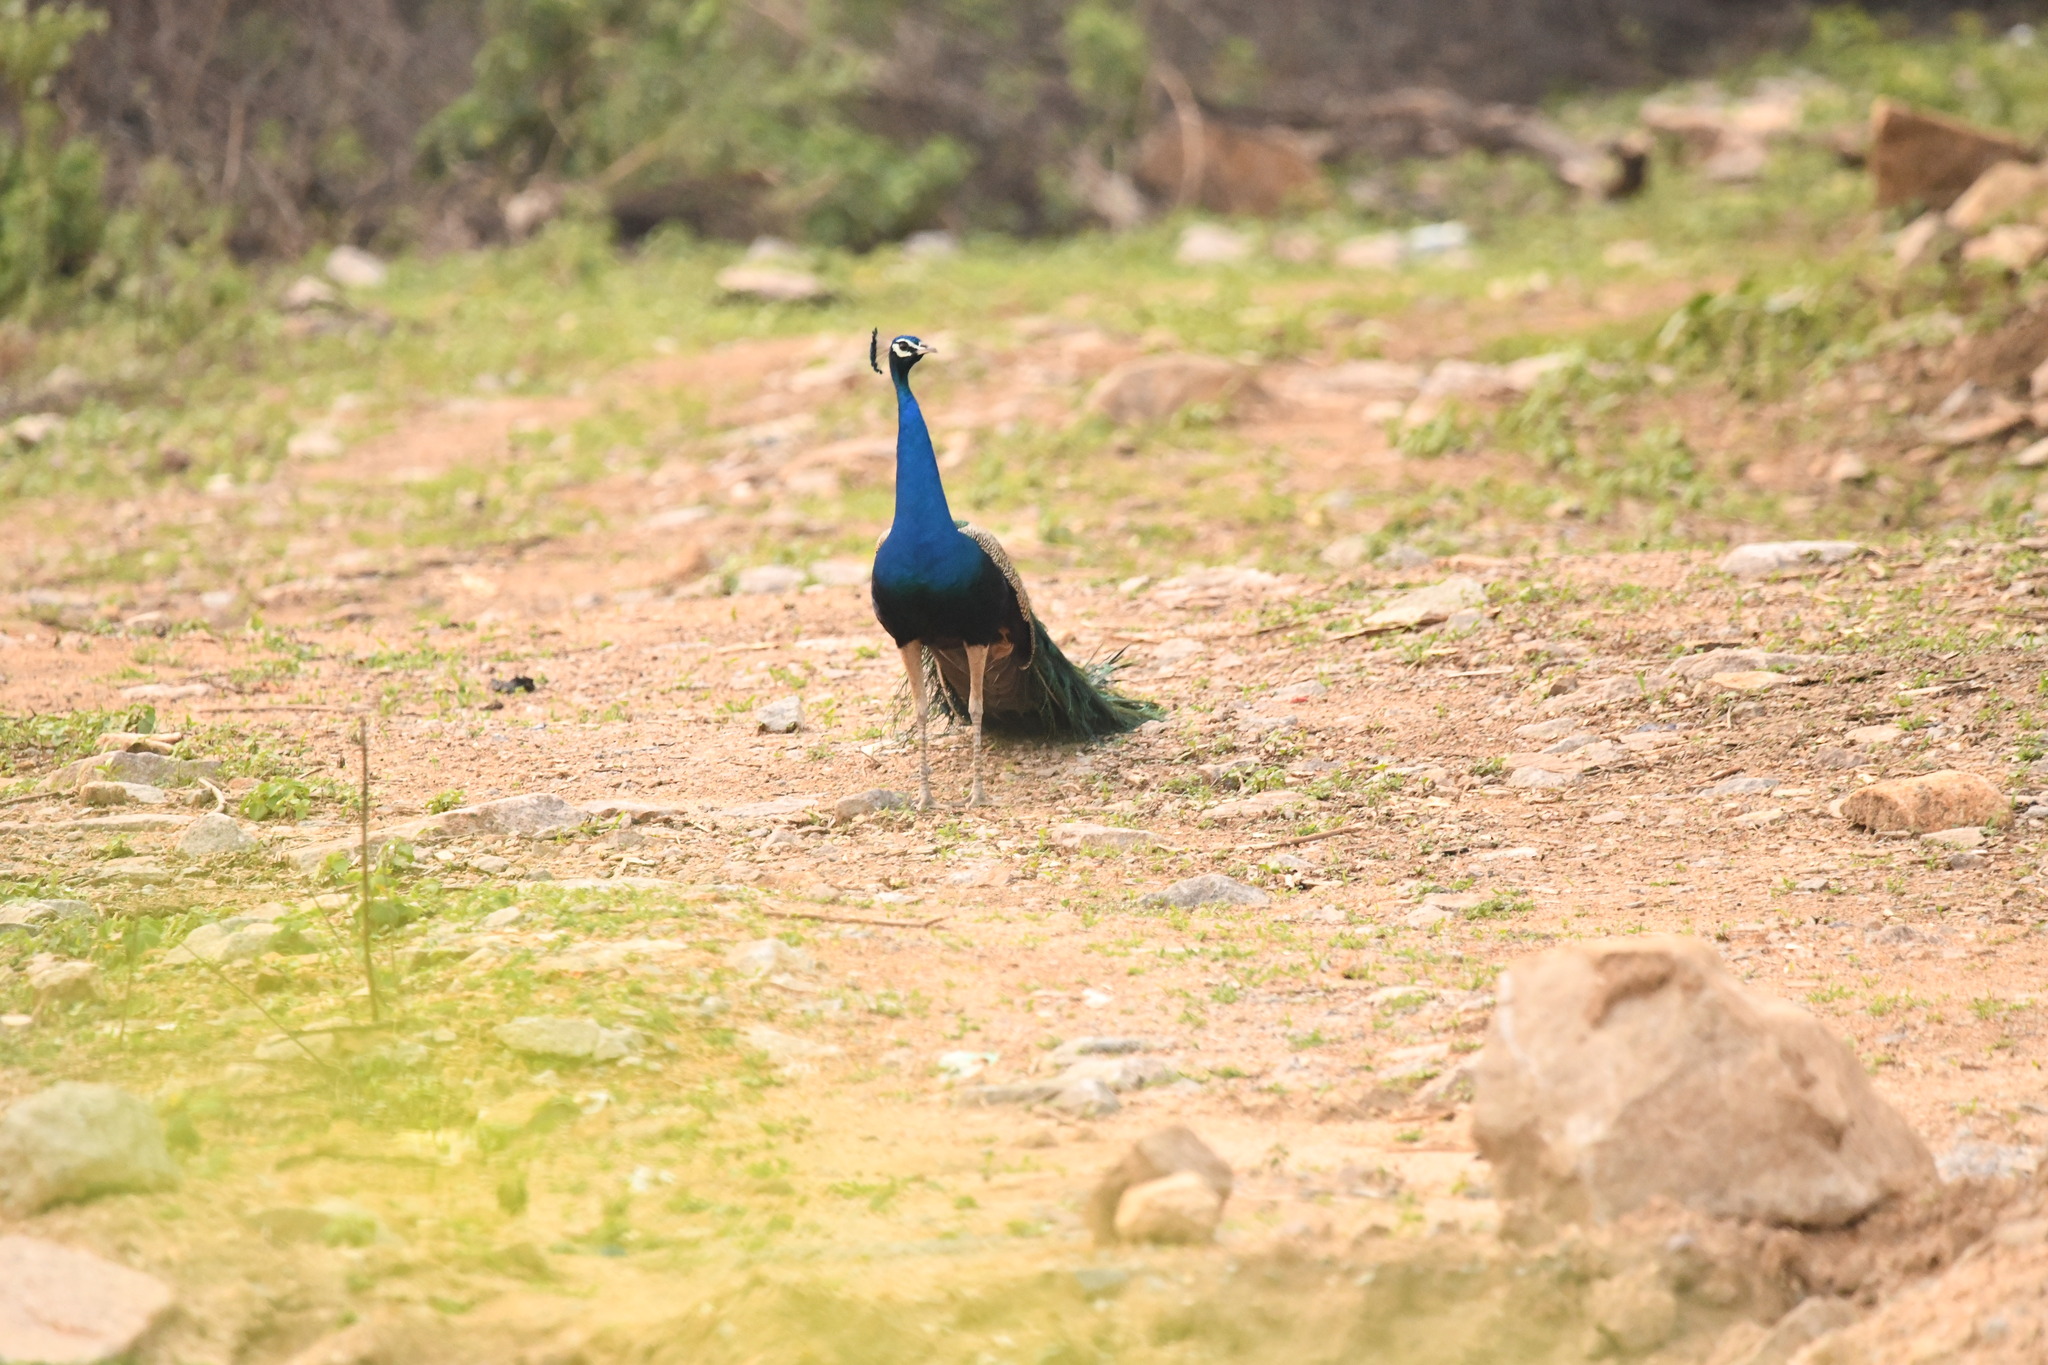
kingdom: Animalia
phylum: Chordata
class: Aves
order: Galliformes
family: Phasianidae
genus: Pavo
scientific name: Pavo cristatus
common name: Indian peafowl
